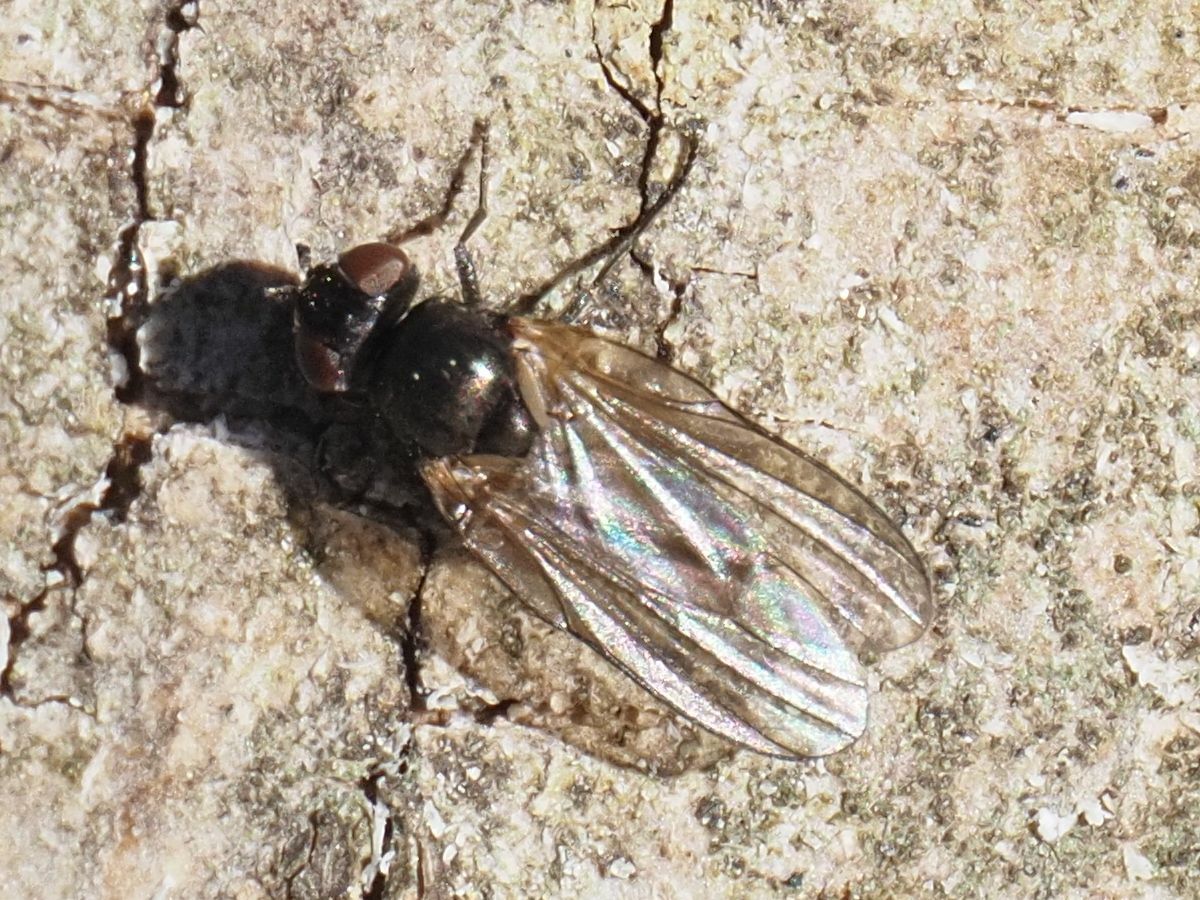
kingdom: Animalia
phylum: Arthropoda
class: Insecta
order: Diptera
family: Lonchaeidae
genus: Earomyia
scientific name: Earomyia lonchaeoides
